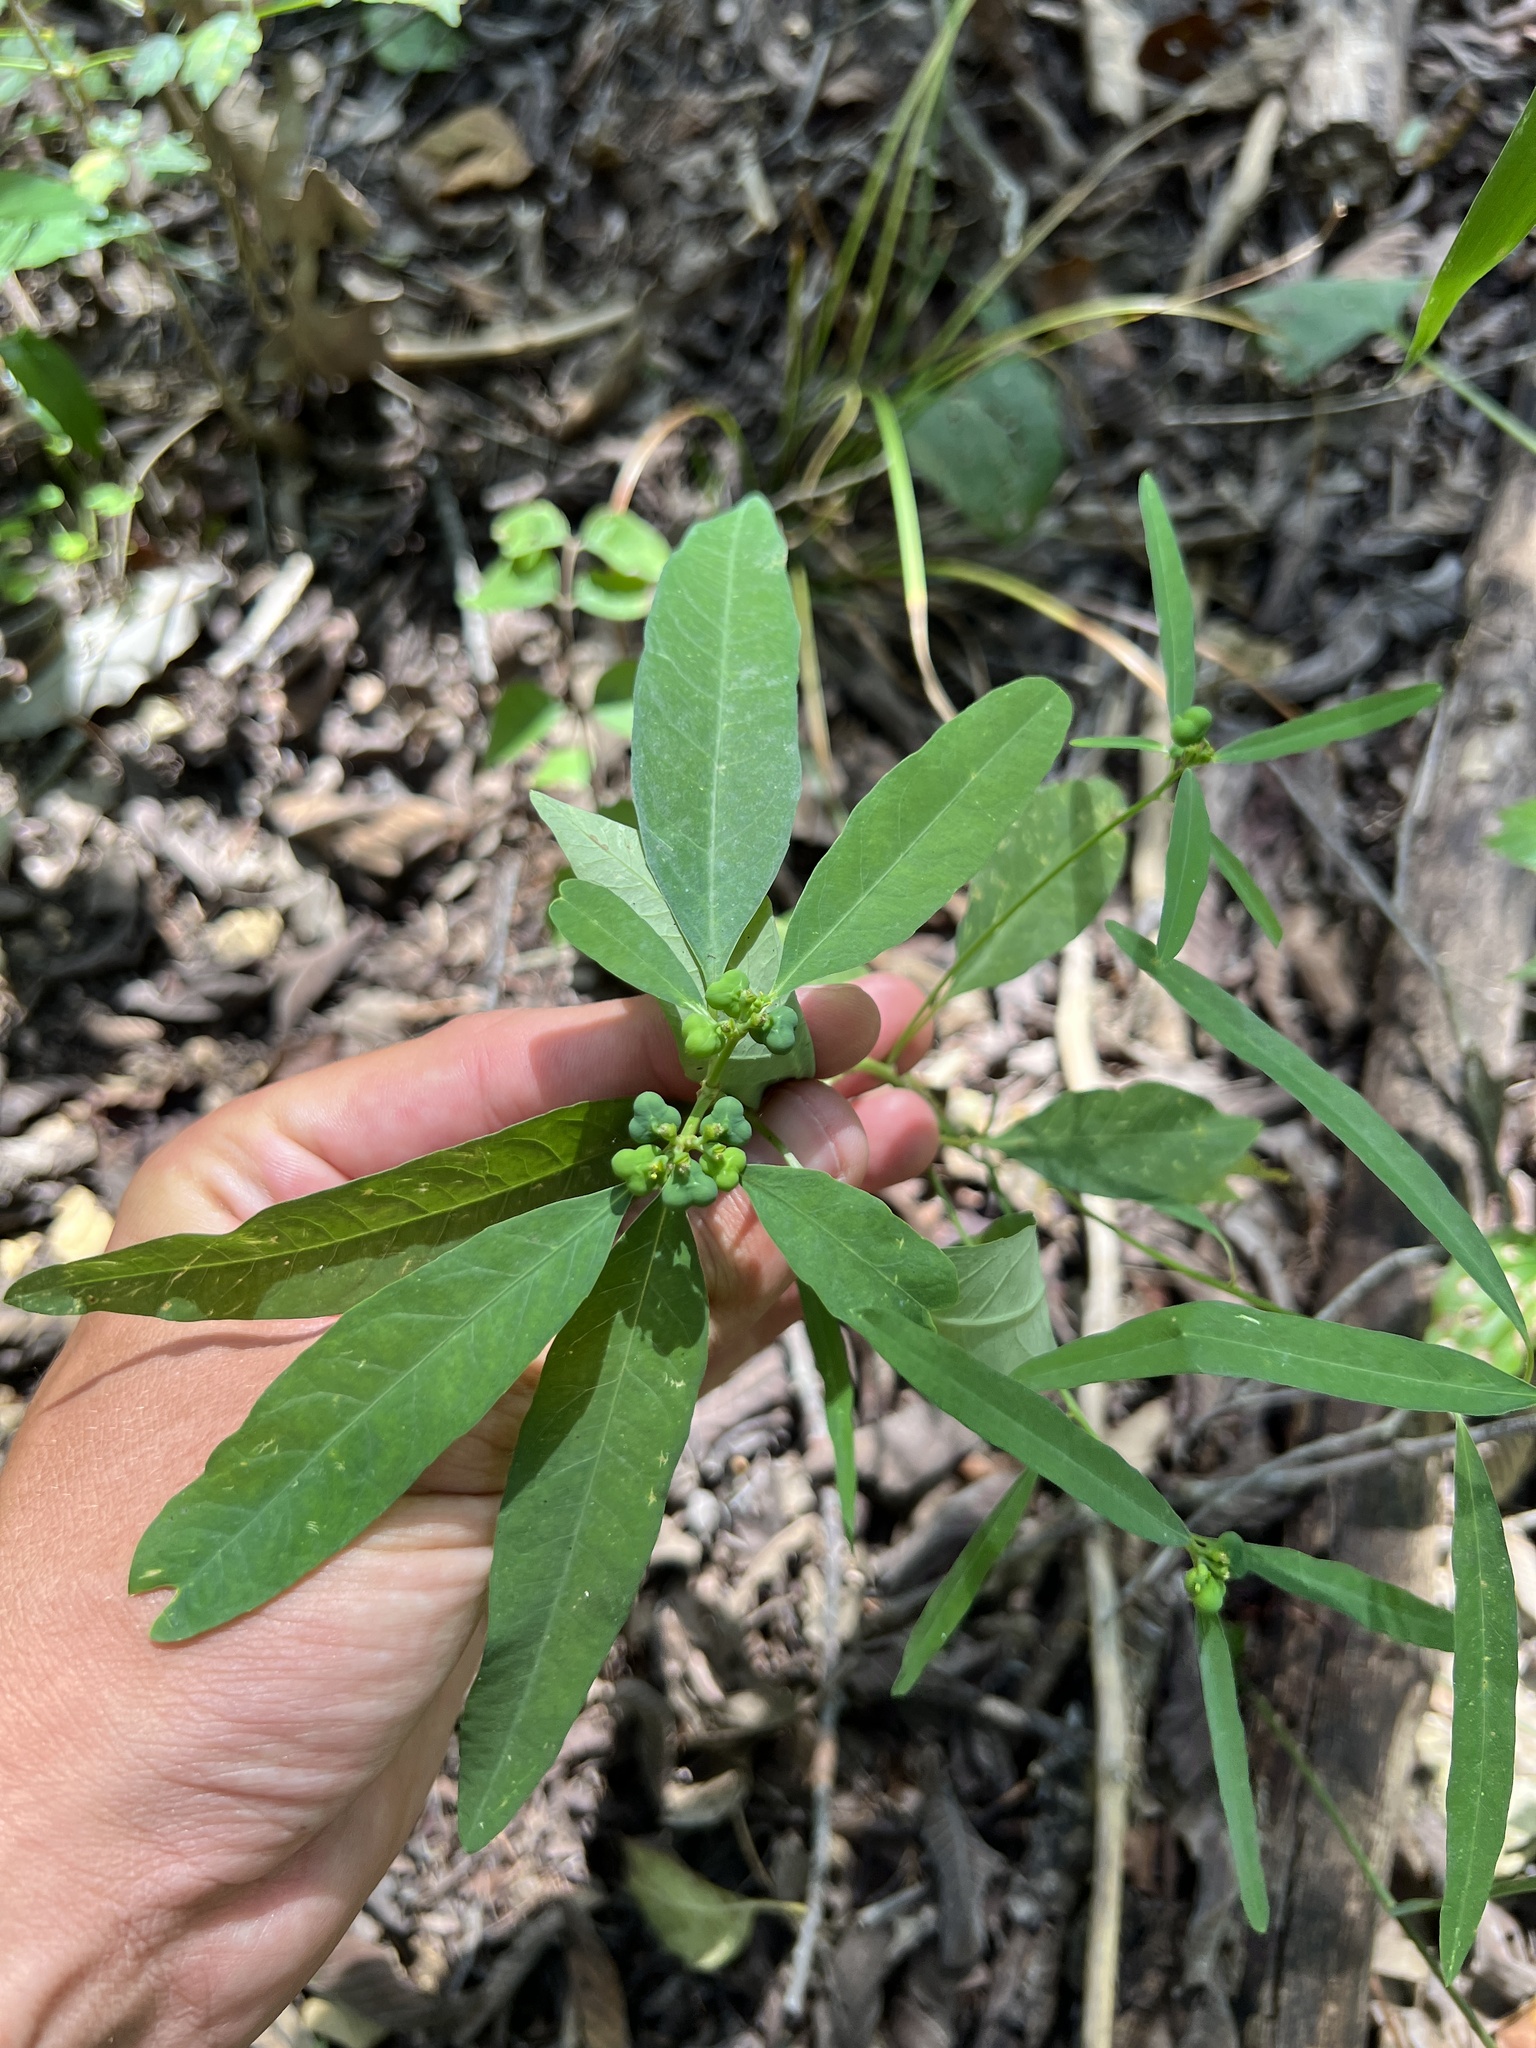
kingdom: Plantae
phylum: Tracheophyta
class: Magnoliopsida
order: Malpighiales
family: Euphorbiaceae
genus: Euphorbia
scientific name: Euphorbia heterophylla
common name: Mexican fireplant
